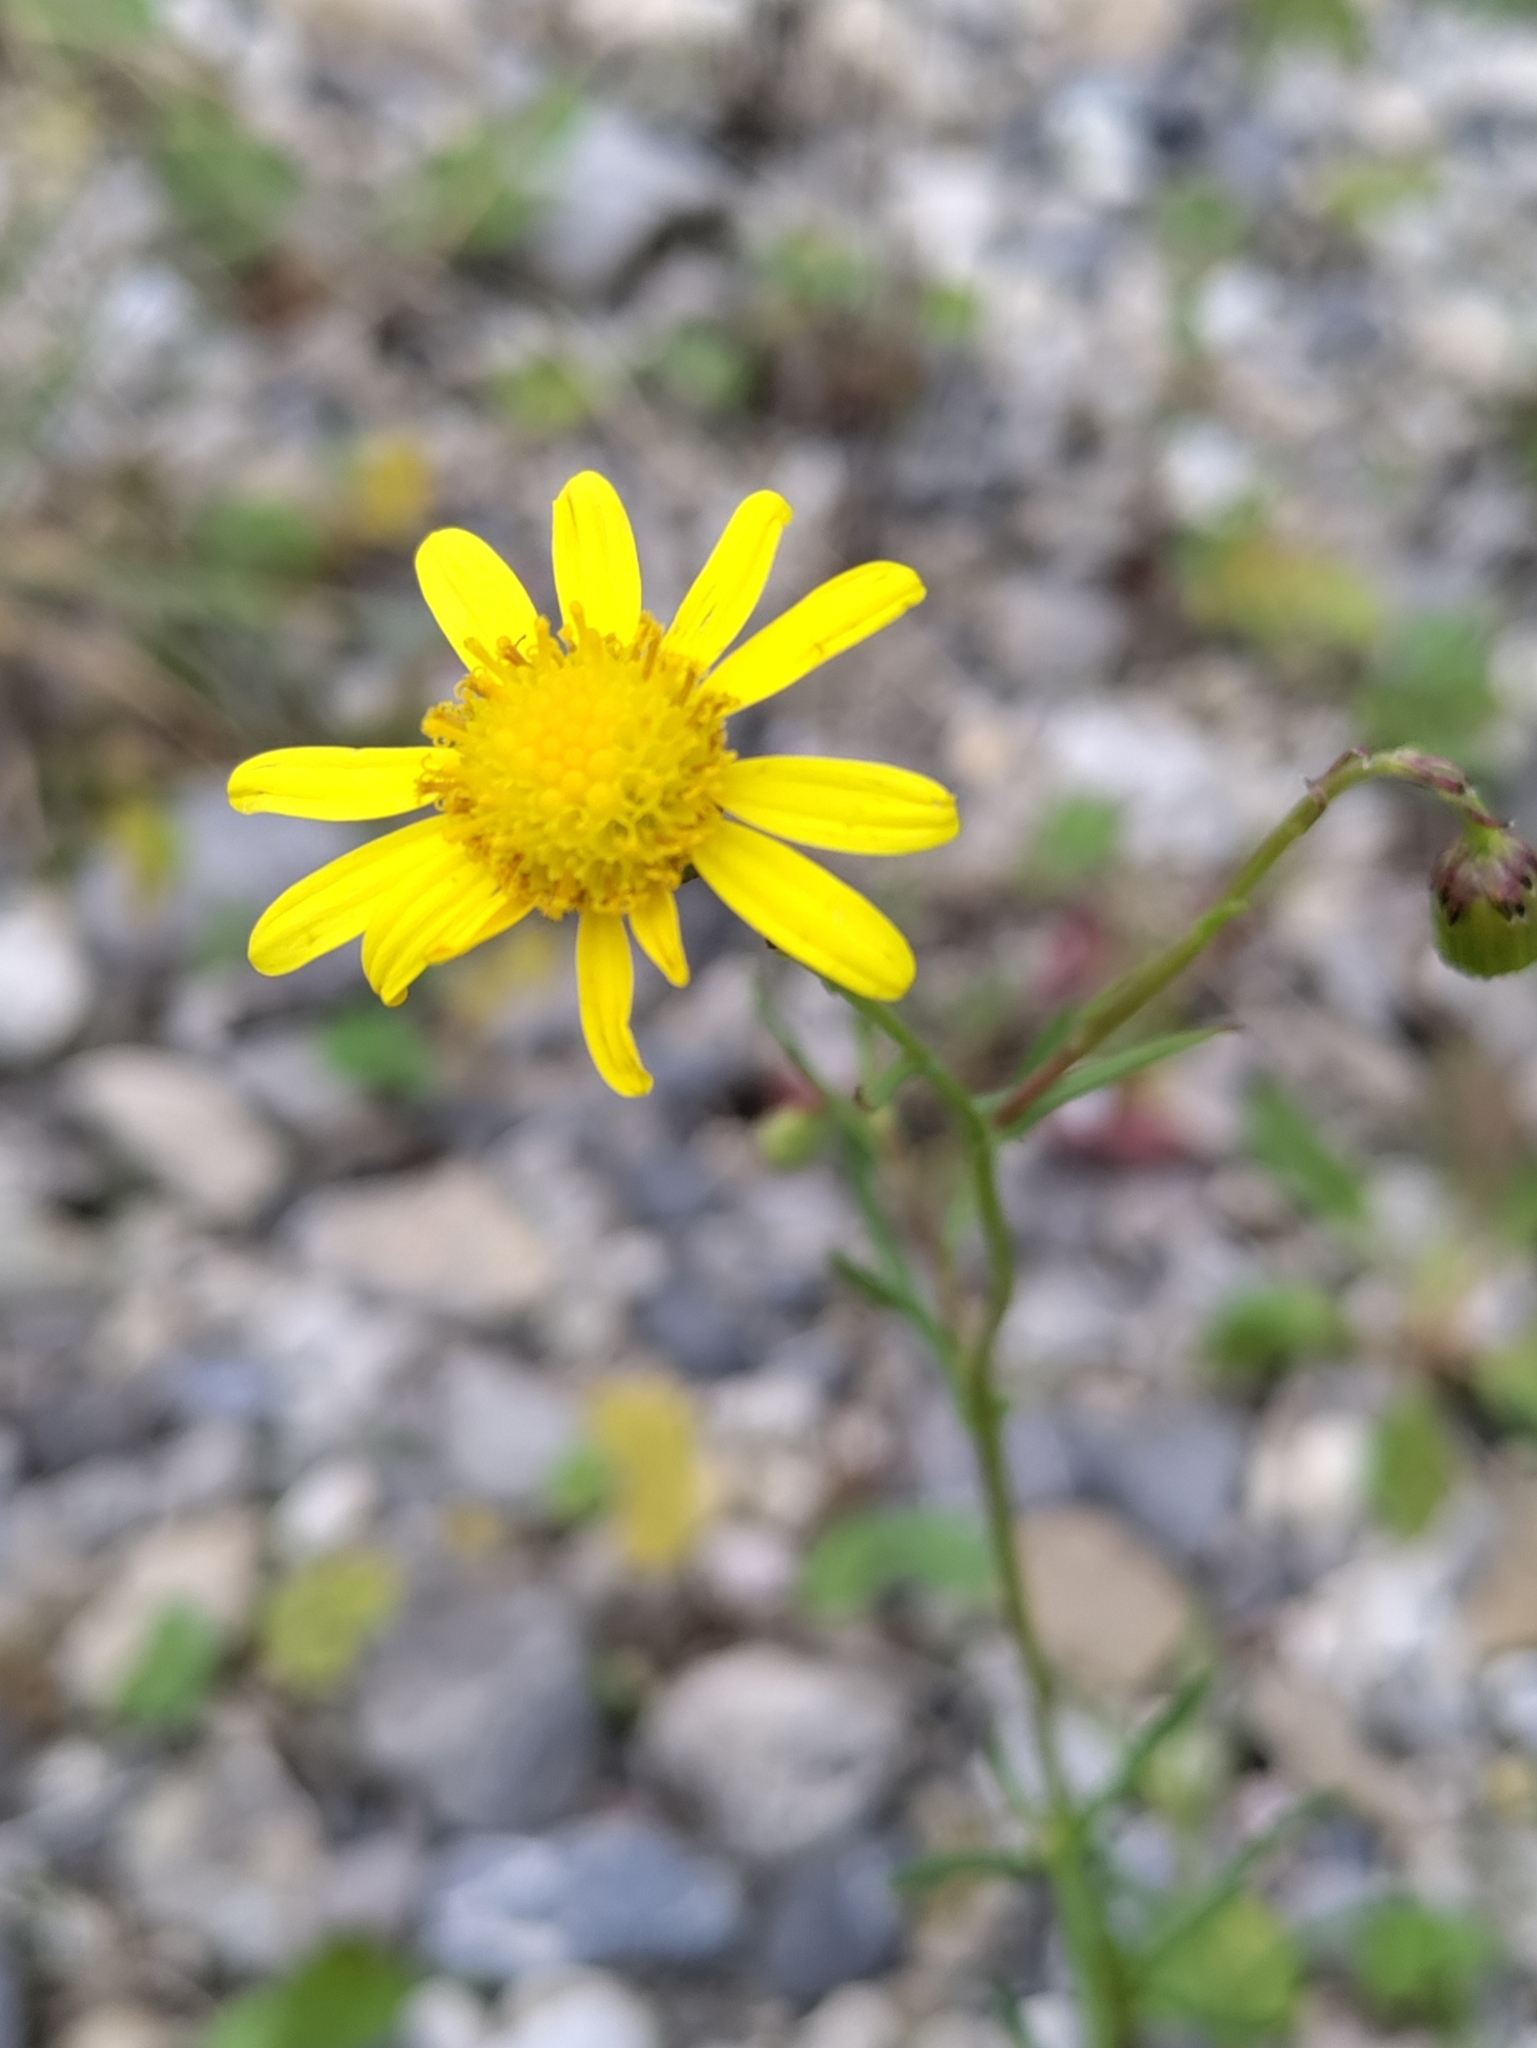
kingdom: Plantae
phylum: Tracheophyta
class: Magnoliopsida
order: Asterales
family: Asteraceae
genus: Senecio
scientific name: Senecio inaequidens
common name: Narrow-leaved ragwort
